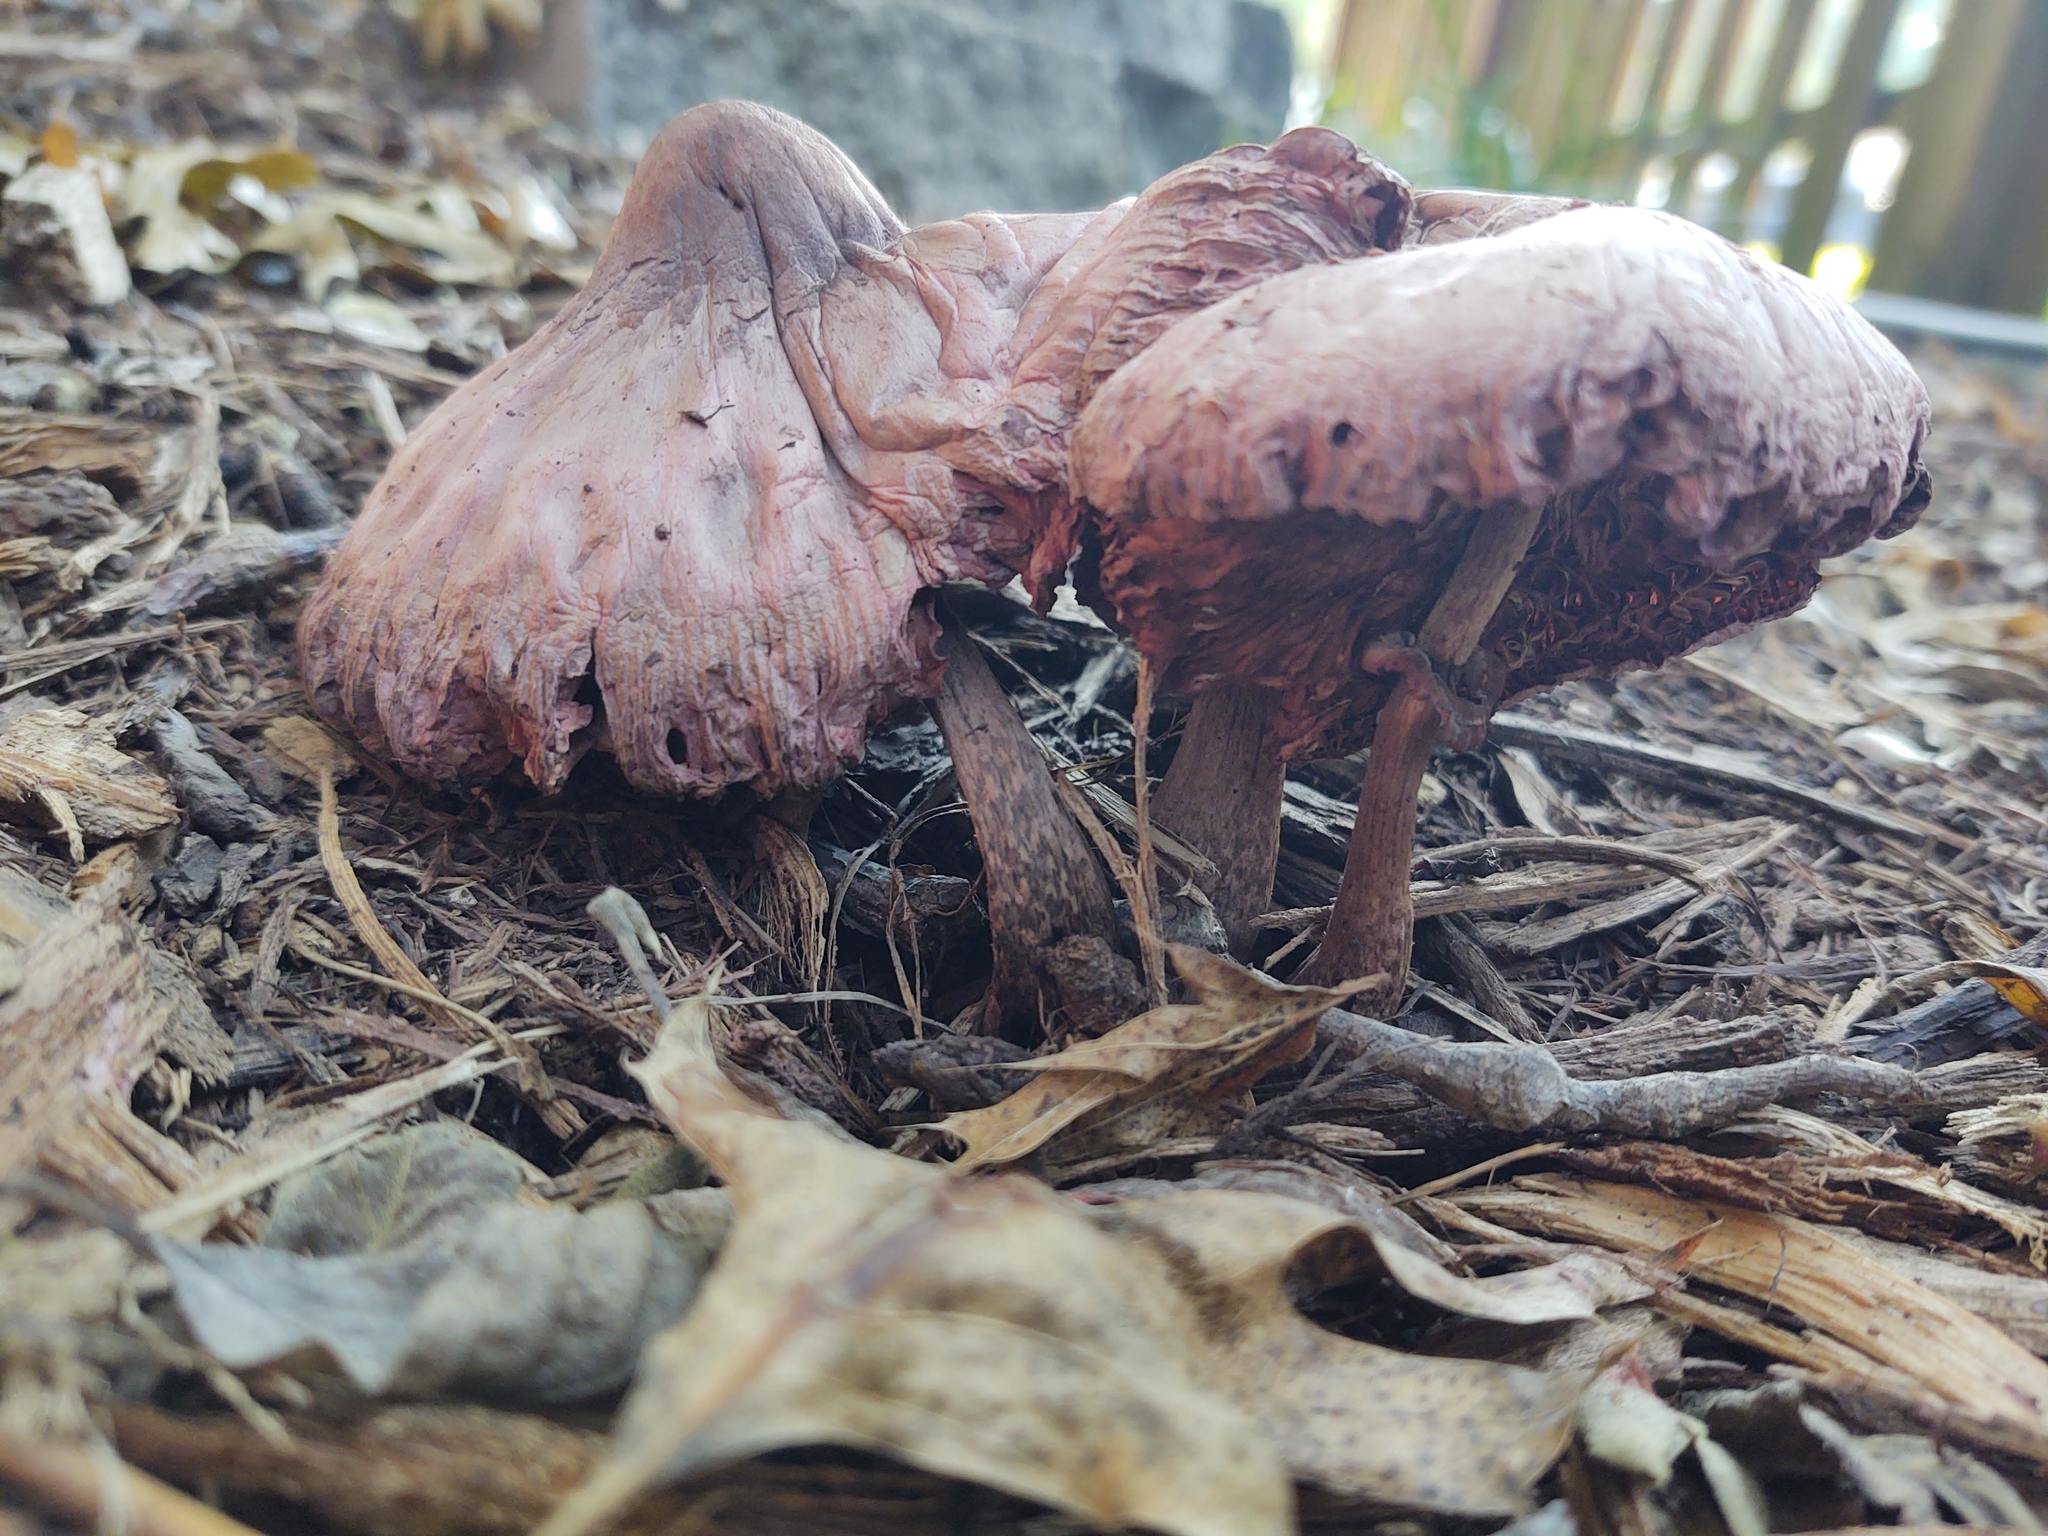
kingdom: Fungi
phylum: Basidiomycota
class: Agaricomycetes
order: Agaricales
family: Agaricaceae
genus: Leucoagaricus
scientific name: Leucoagaricus americanus
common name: Reddening lepiota
